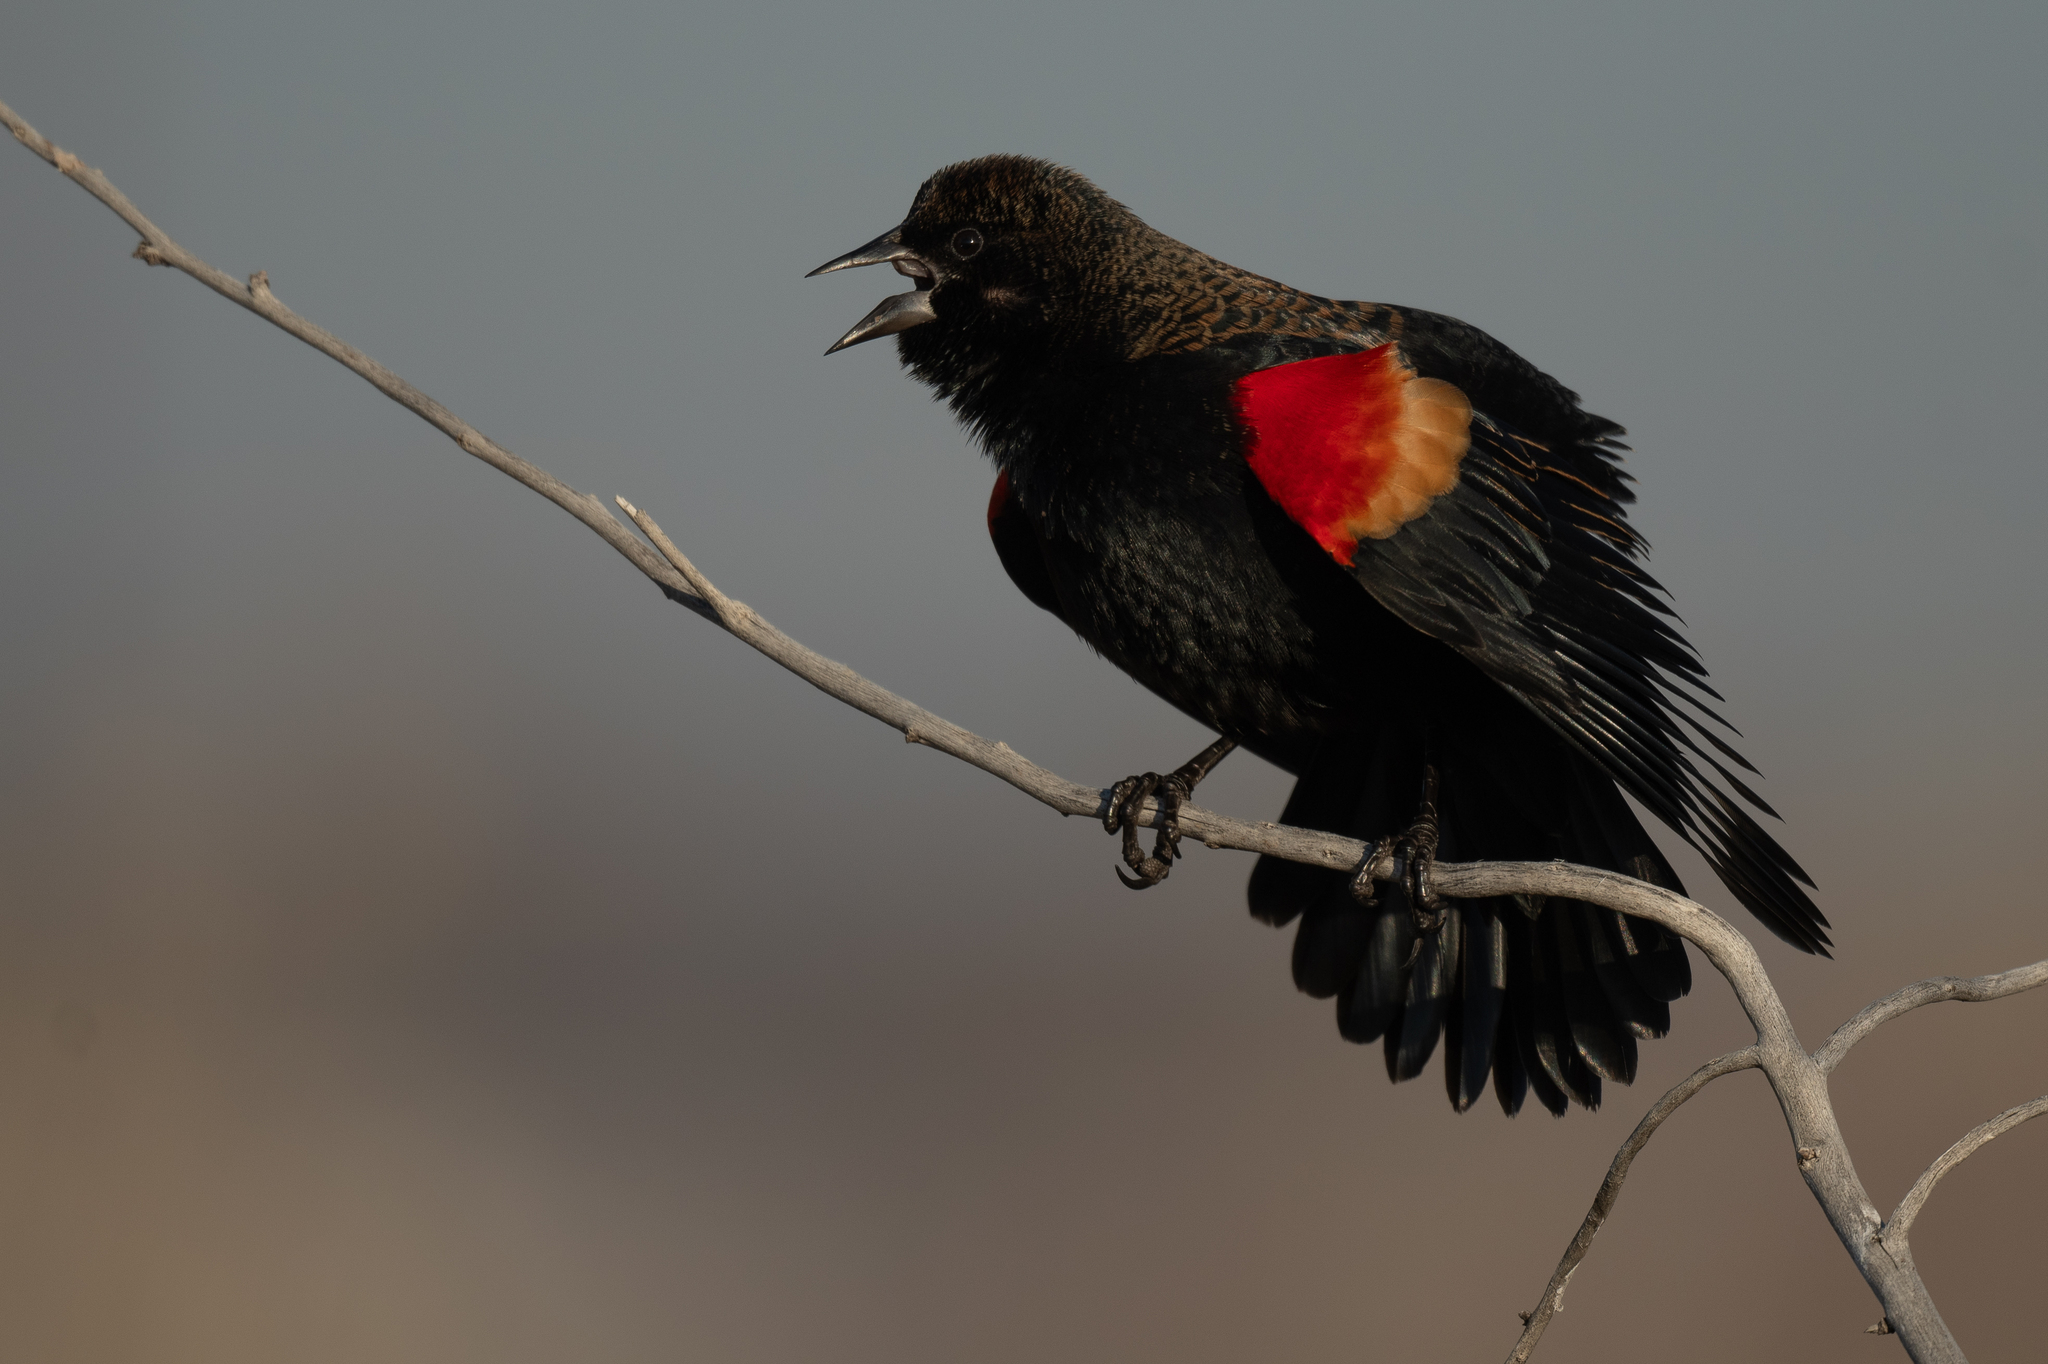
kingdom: Animalia
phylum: Chordata
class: Aves
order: Passeriformes
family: Icteridae
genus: Agelaius
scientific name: Agelaius phoeniceus
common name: Red-winged blackbird
